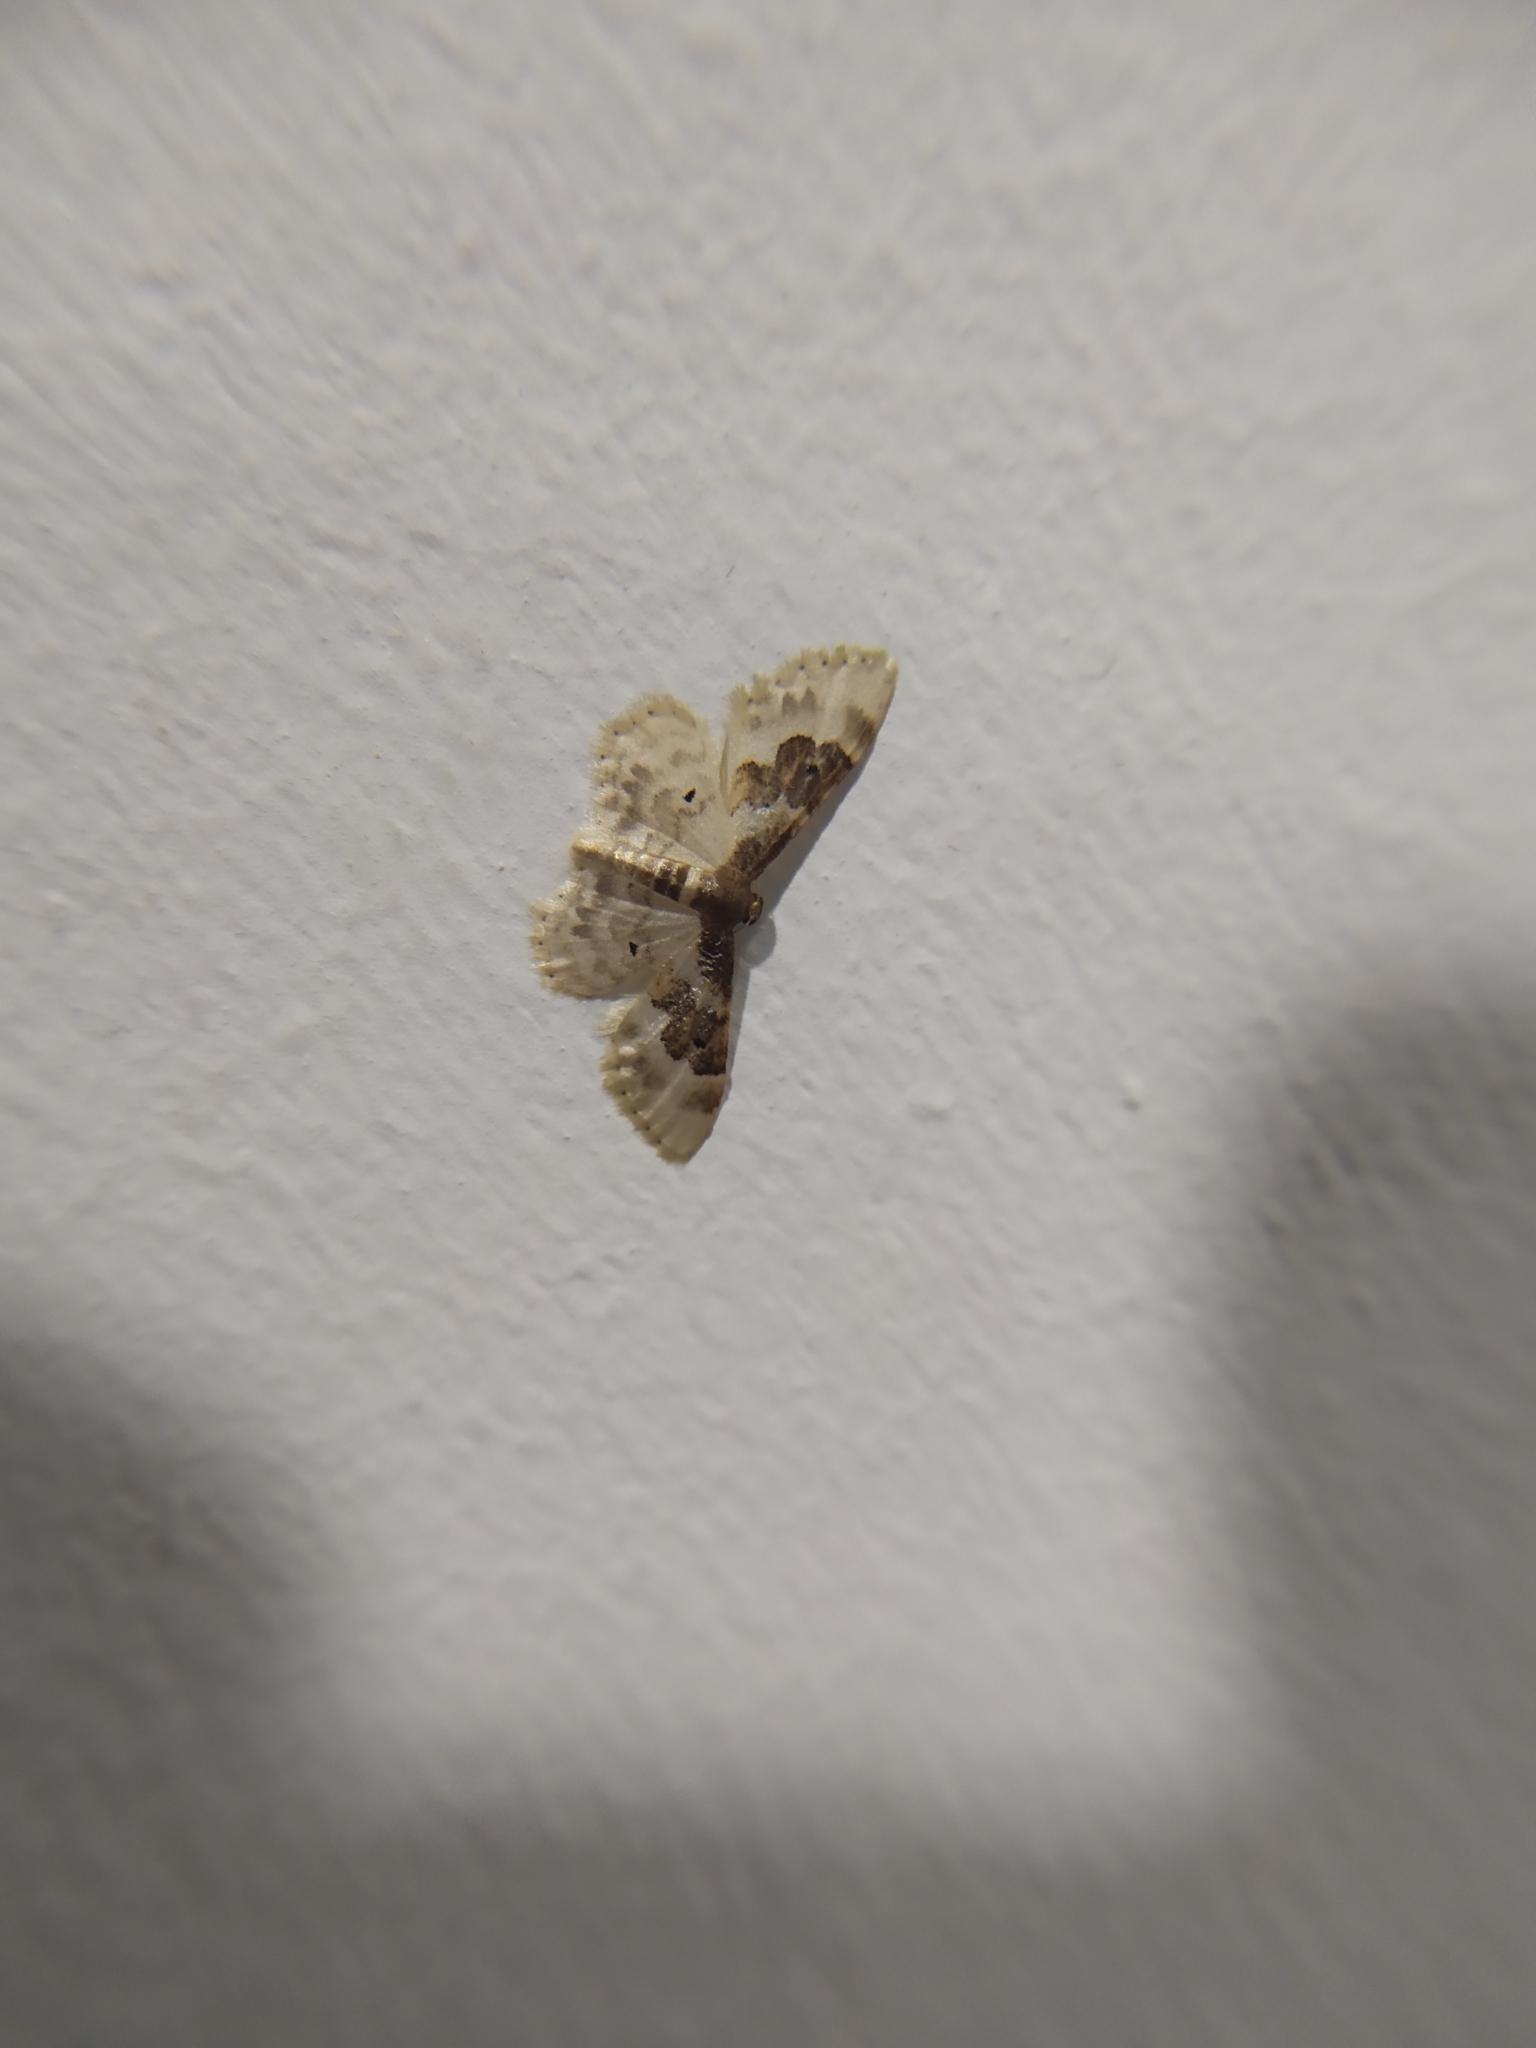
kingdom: Animalia
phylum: Arthropoda
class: Insecta
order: Lepidoptera
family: Geometridae
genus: Idaea
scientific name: Idaea rusticata
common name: Least carpet
